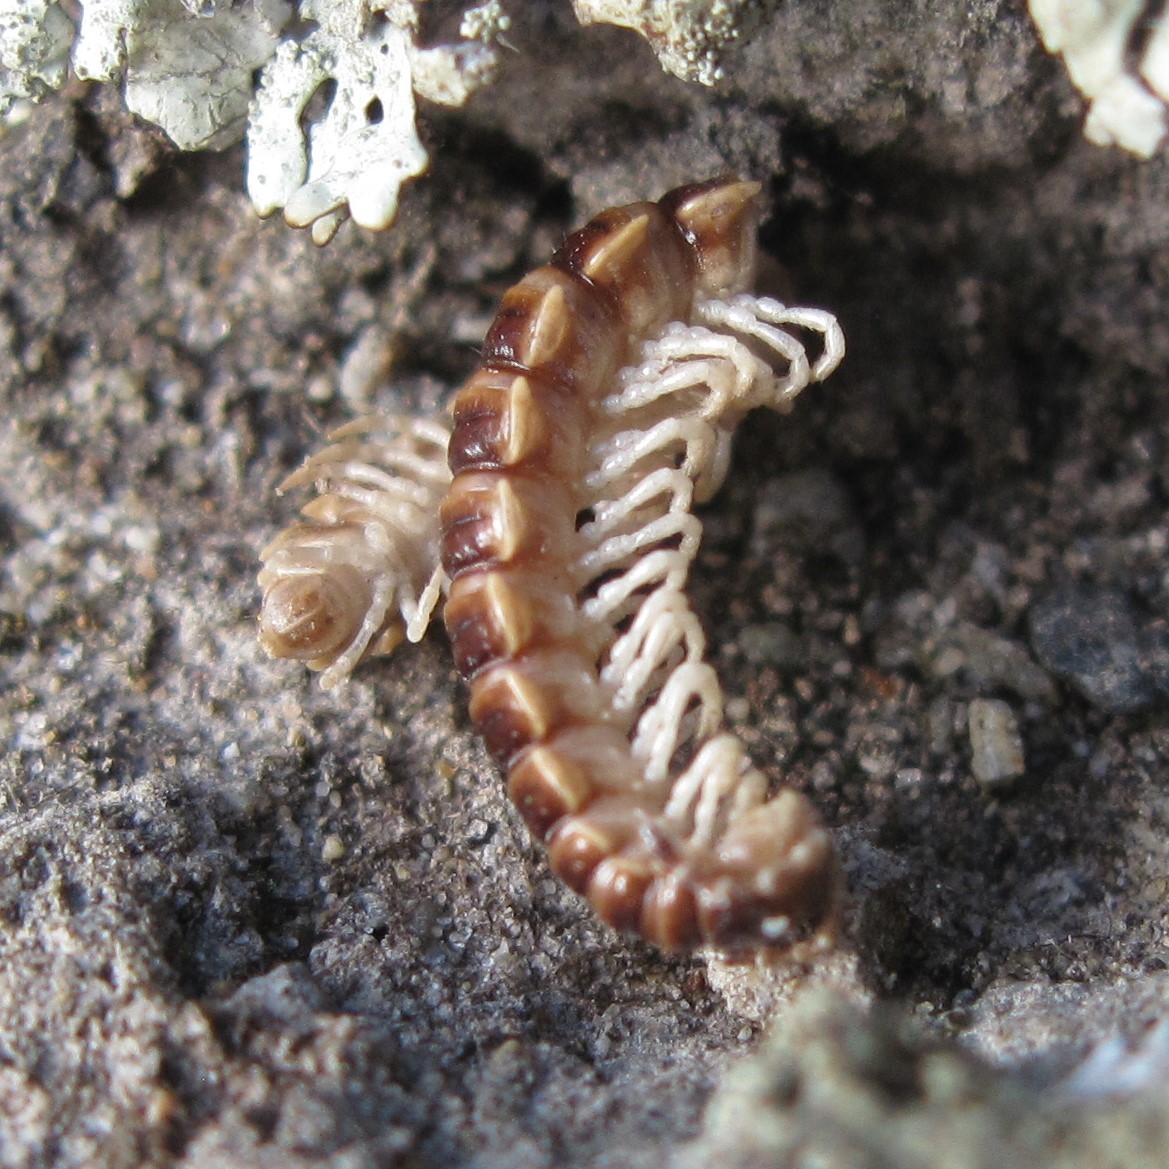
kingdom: Animalia
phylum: Arthropoda
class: Diplopoda
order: Polydesmida
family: Paradoxosomatidae
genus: Oxidus
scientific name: Oxidus gracilis
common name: Greenhouse millipede
